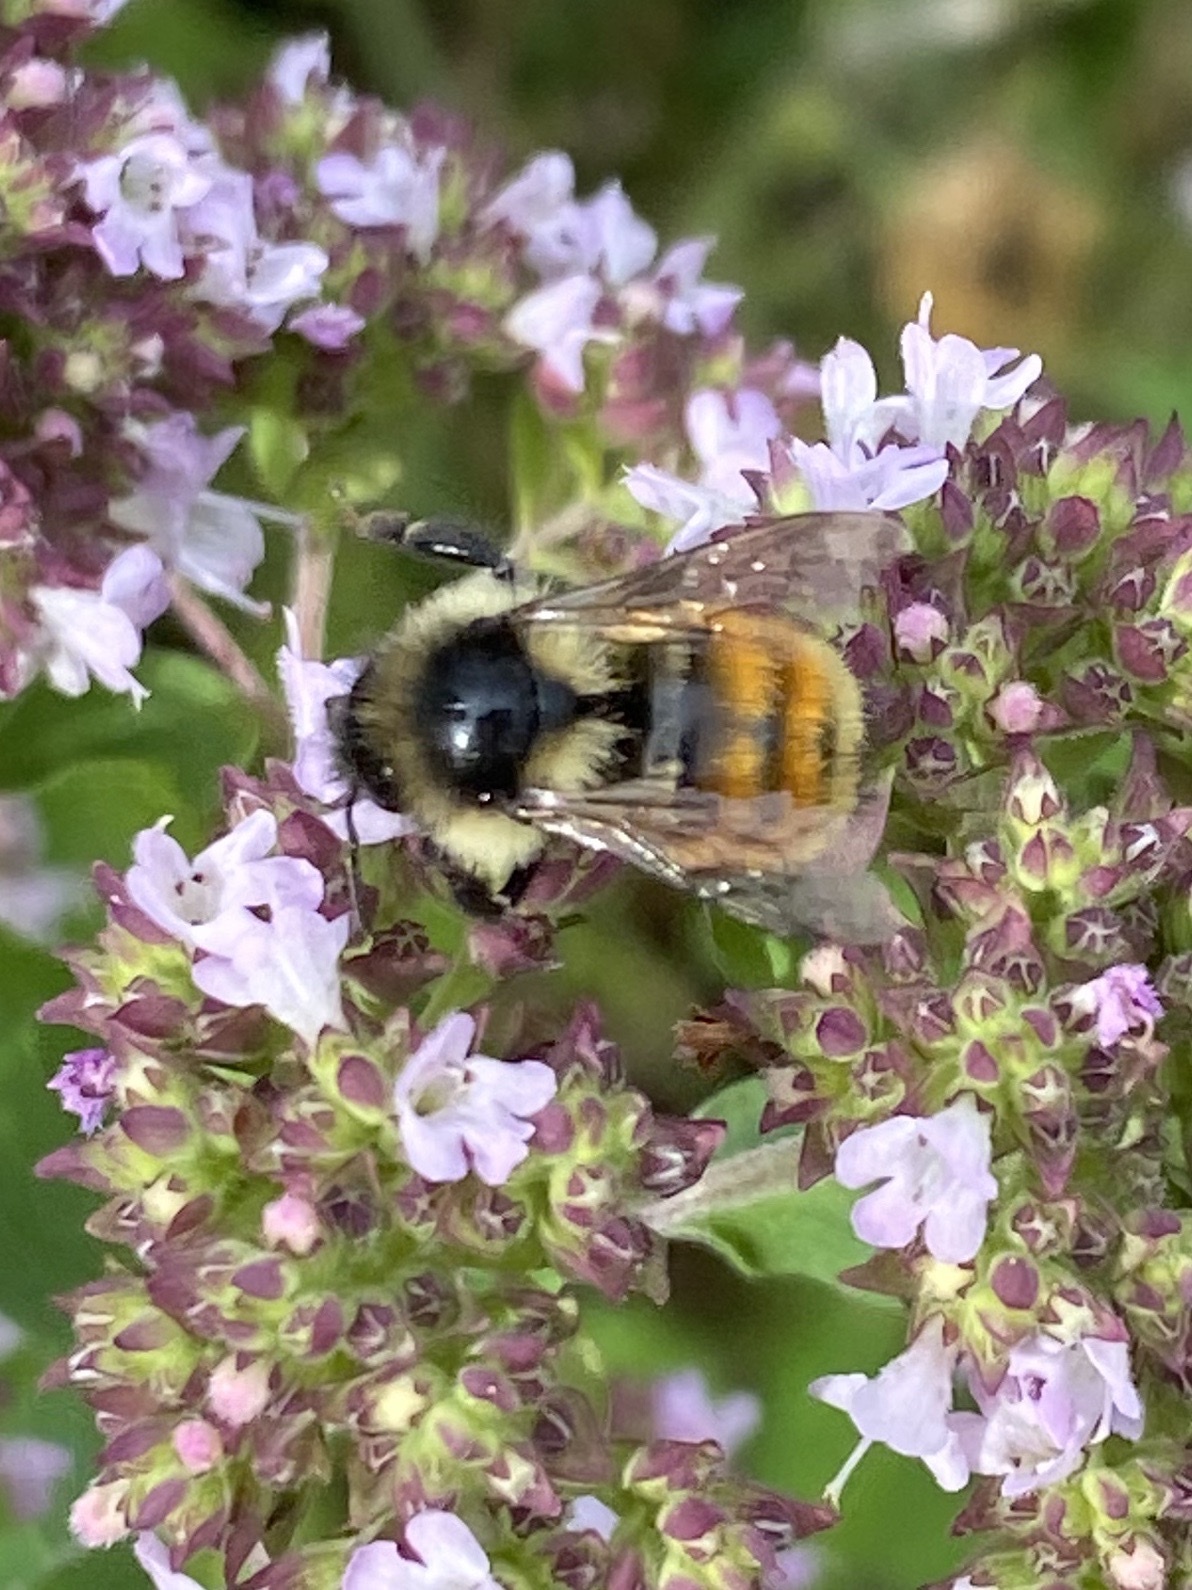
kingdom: Animalia
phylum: Arthropoda
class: Insecta
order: Hymenoptera
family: Apidae
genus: Bombus
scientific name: Bombus ternarius
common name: Tri-colored bumble bee
